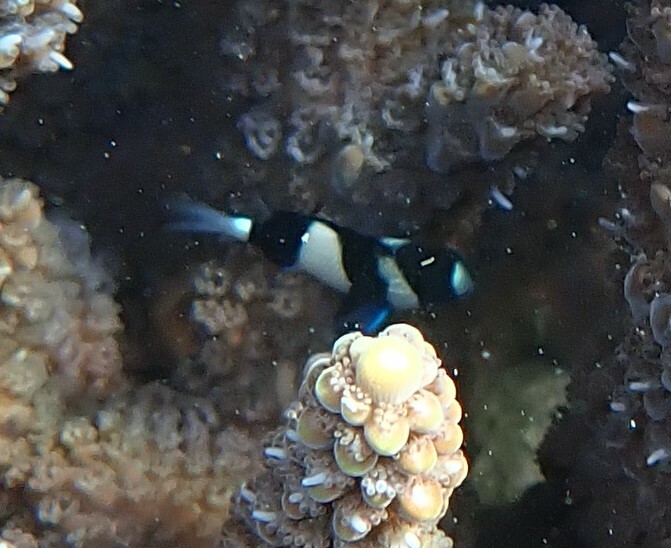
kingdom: Animalia
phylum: Chordata
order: Perciformes
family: Pomacentridae
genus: Dascyllus
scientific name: Dascyllus aruanus
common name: Humbug dascyllus
